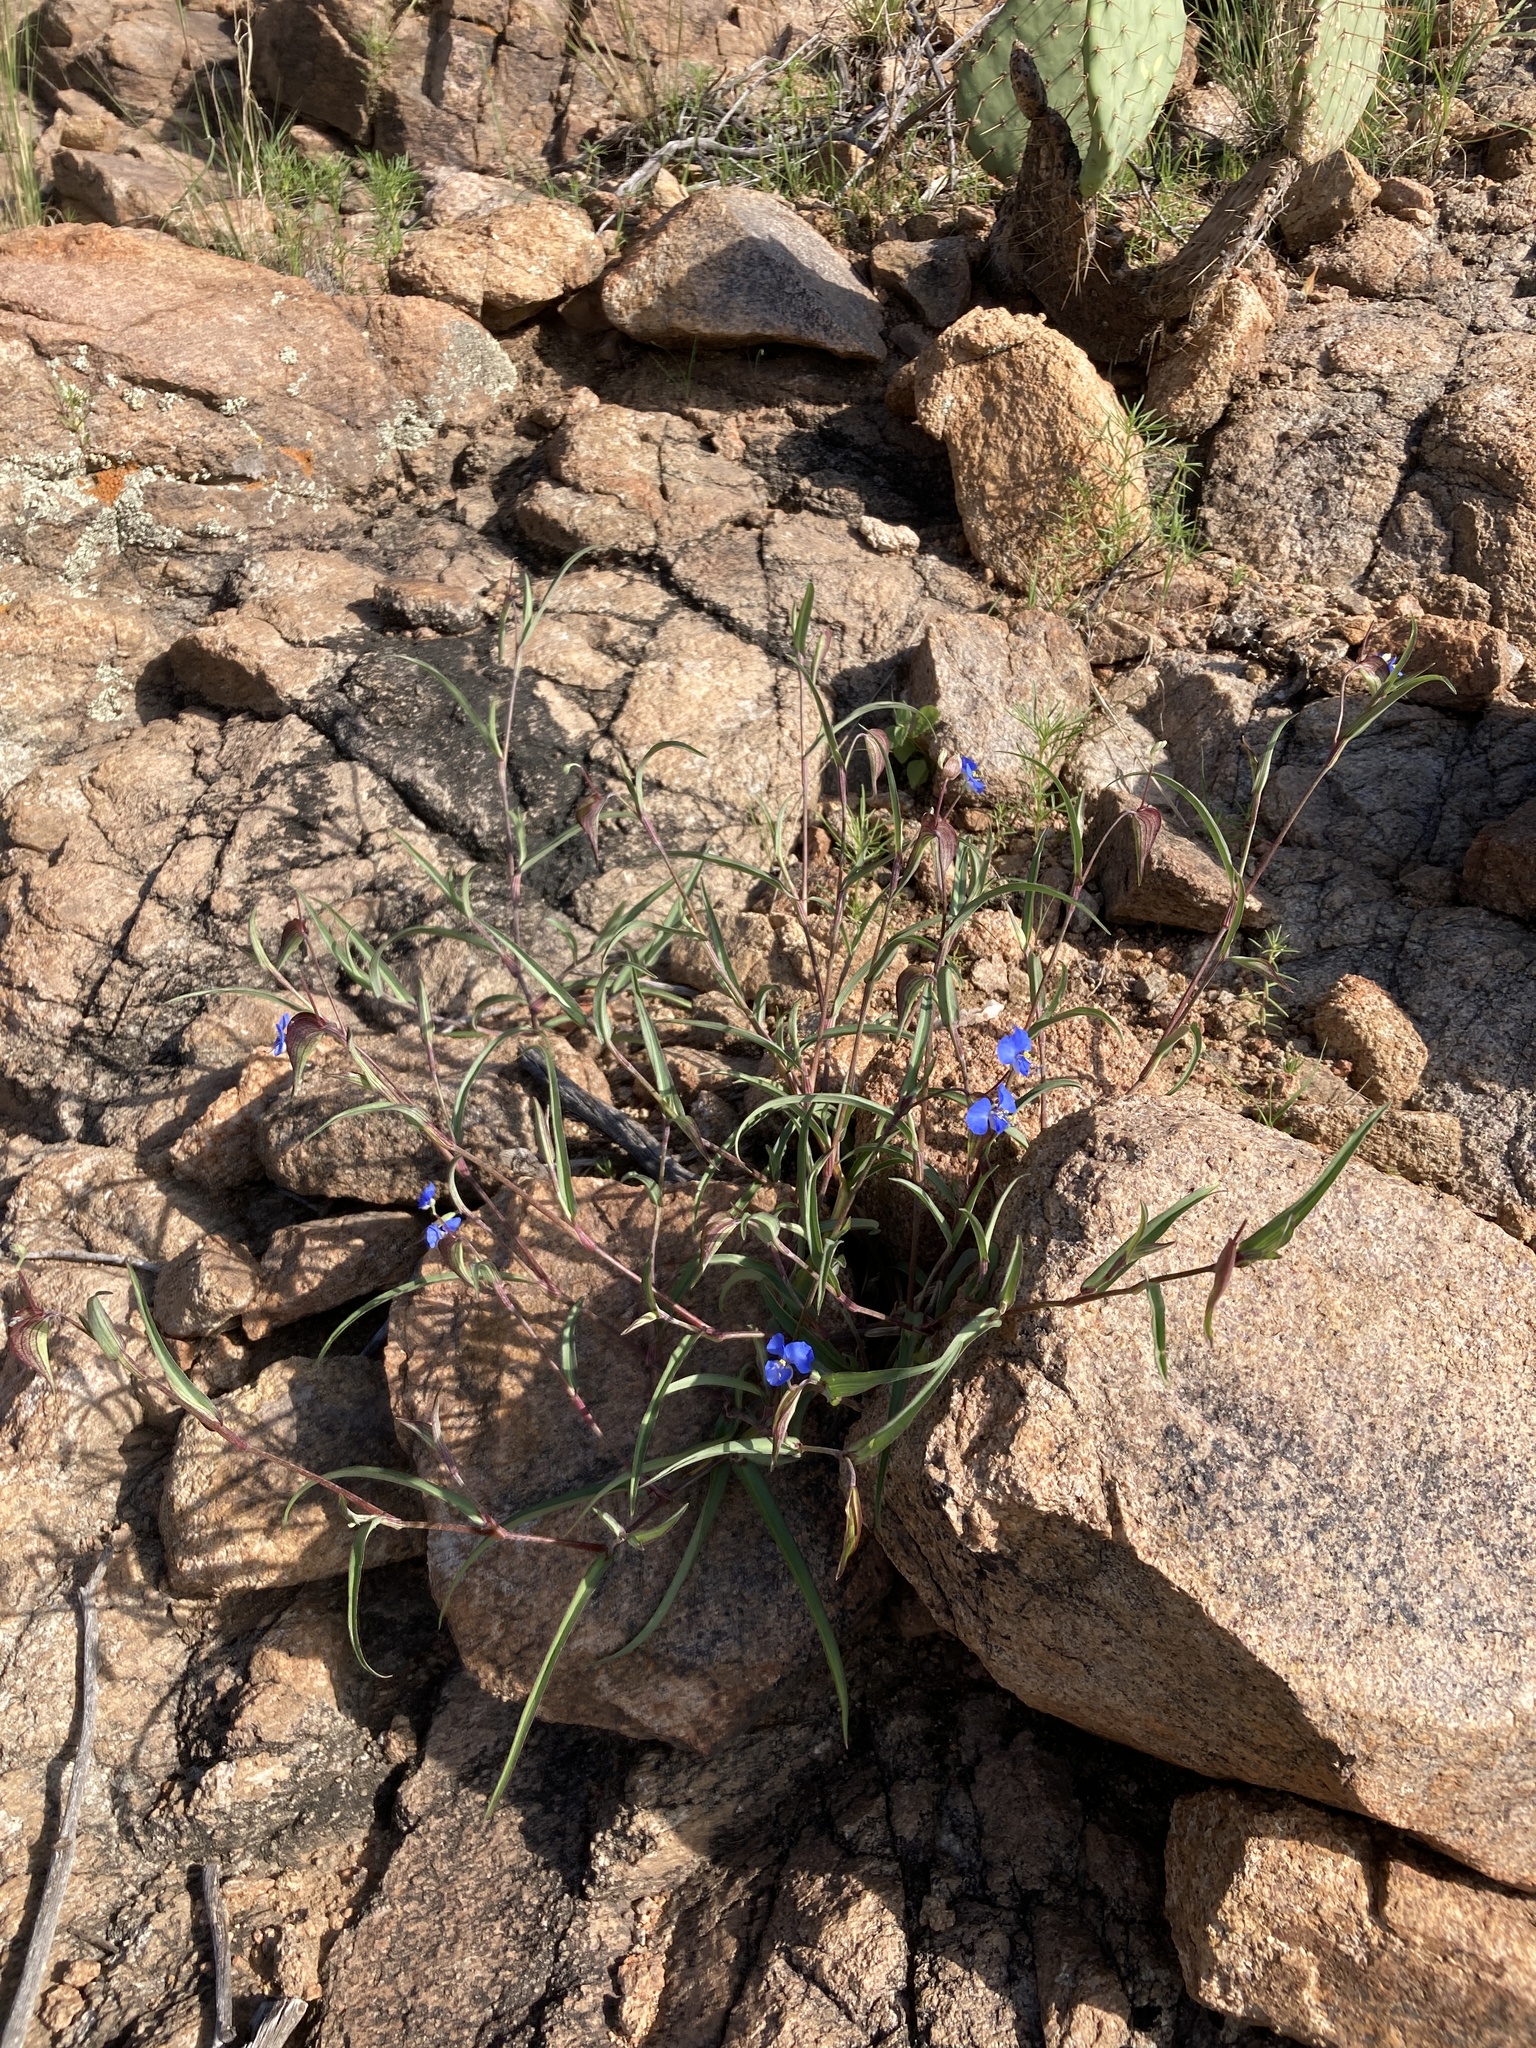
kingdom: Plantae
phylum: Tracheophyta
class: Liliopsida
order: Commelinales
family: Commelinaceae
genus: Commelina
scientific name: Commelina dianthifolia
